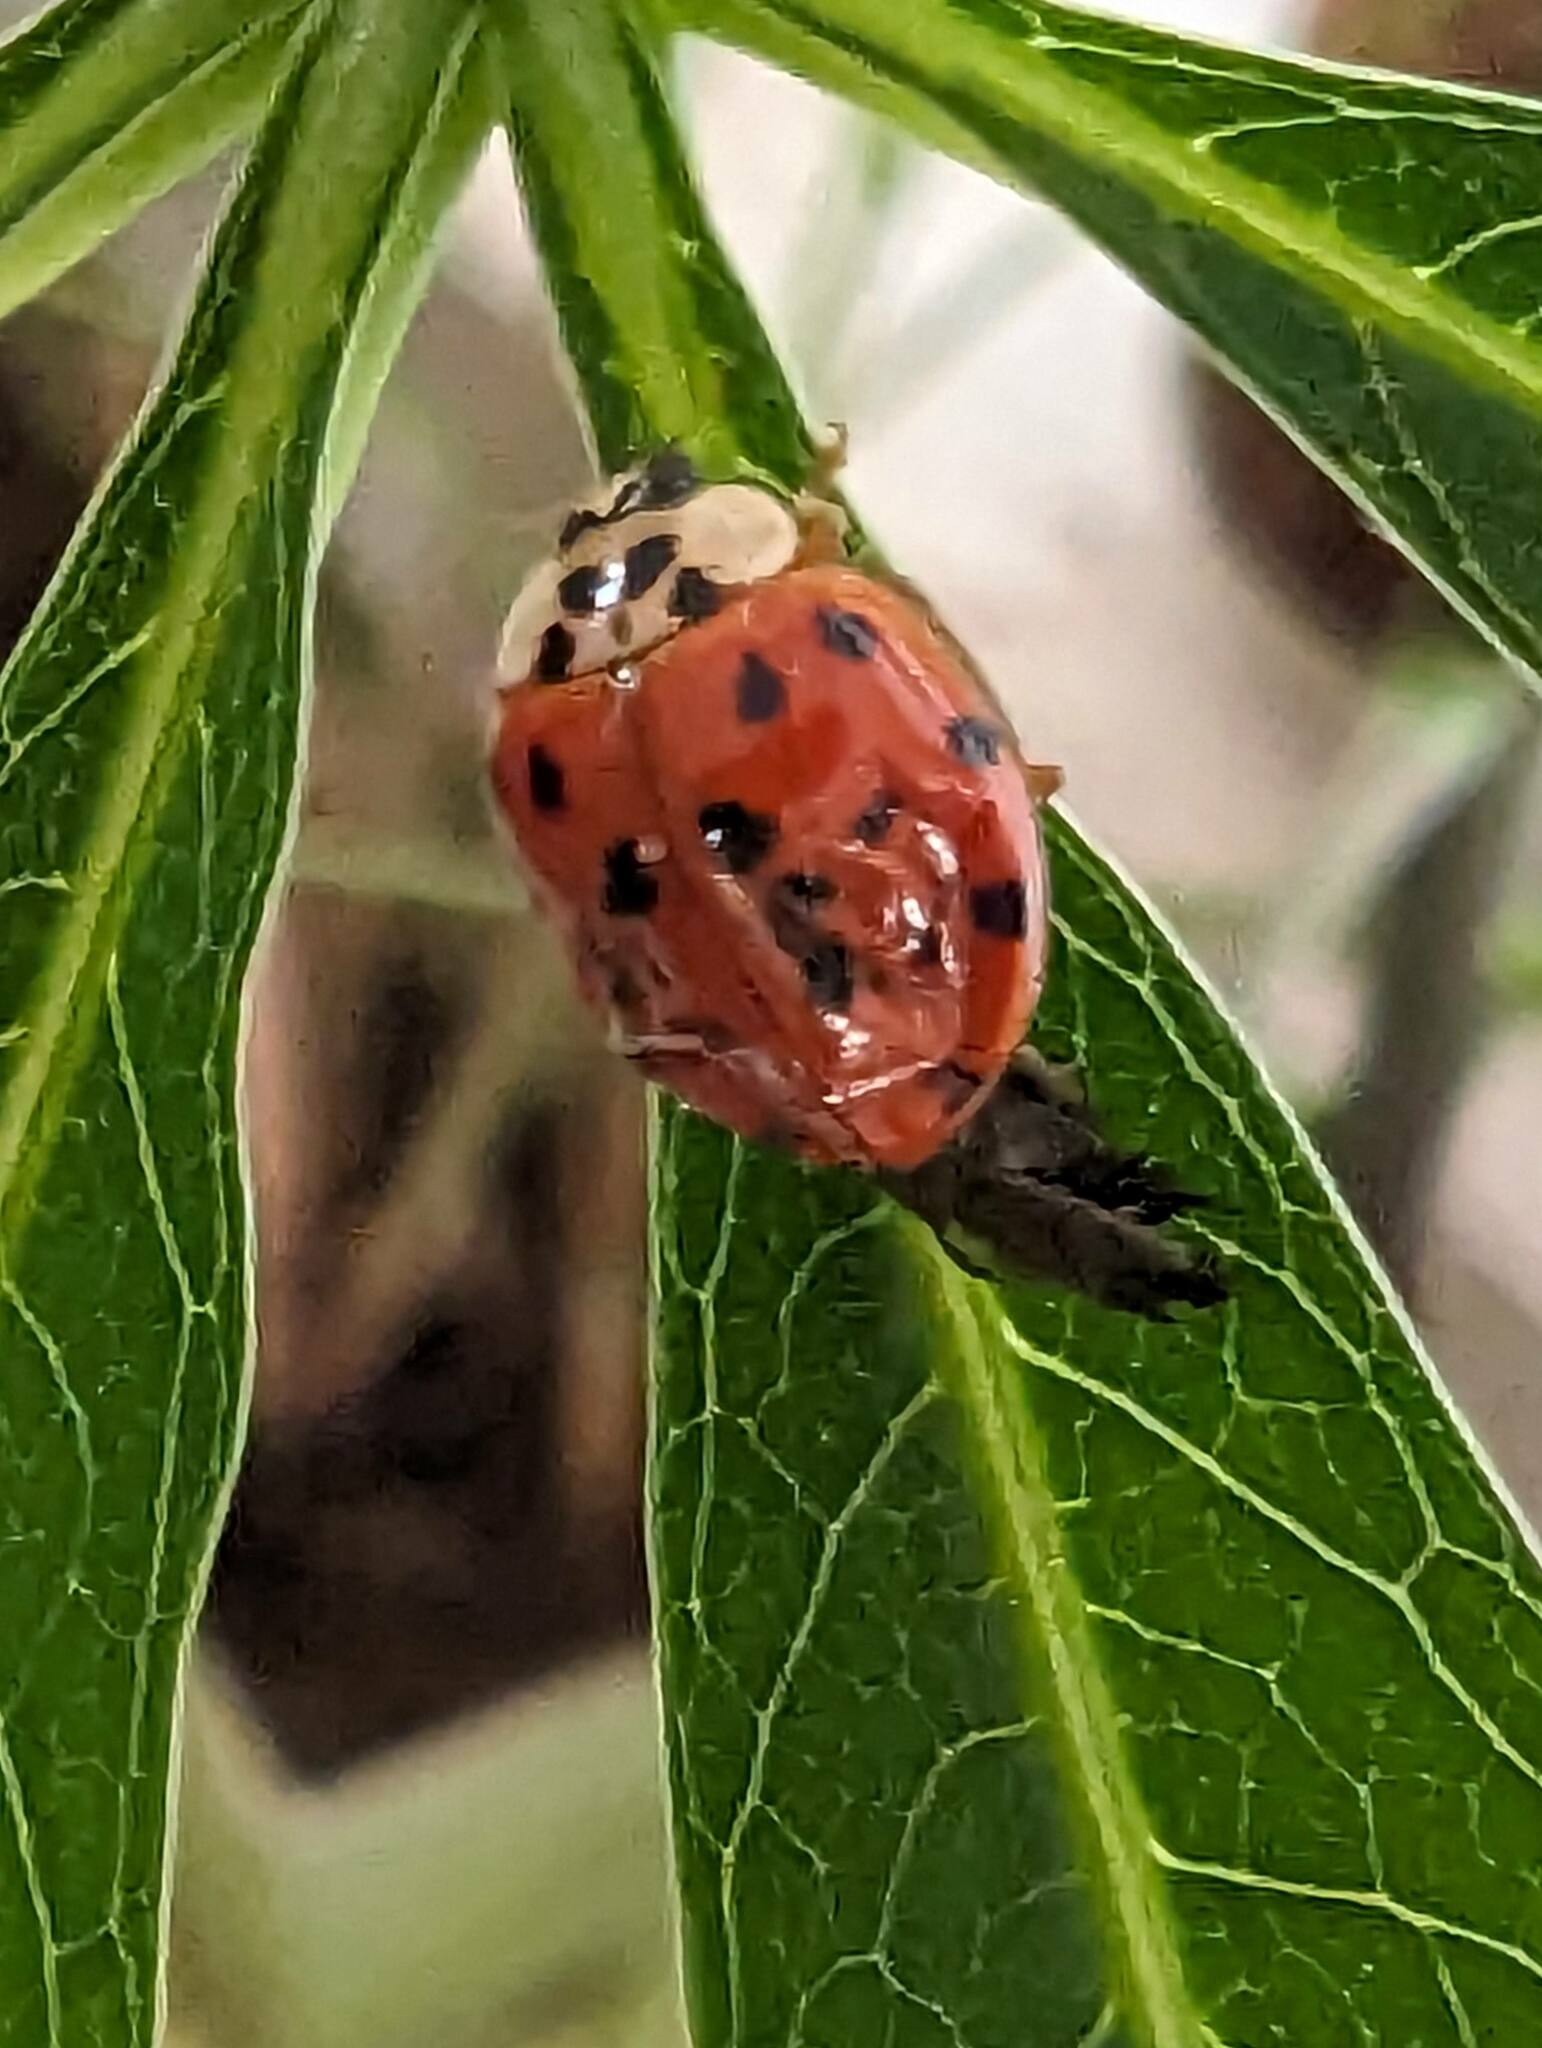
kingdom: Animalia
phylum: Arthropoda
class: Insecta
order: Coleoptera
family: Coccinellidae
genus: Harmonia
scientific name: Harmonia axyridis
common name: Harlequin ladybird
